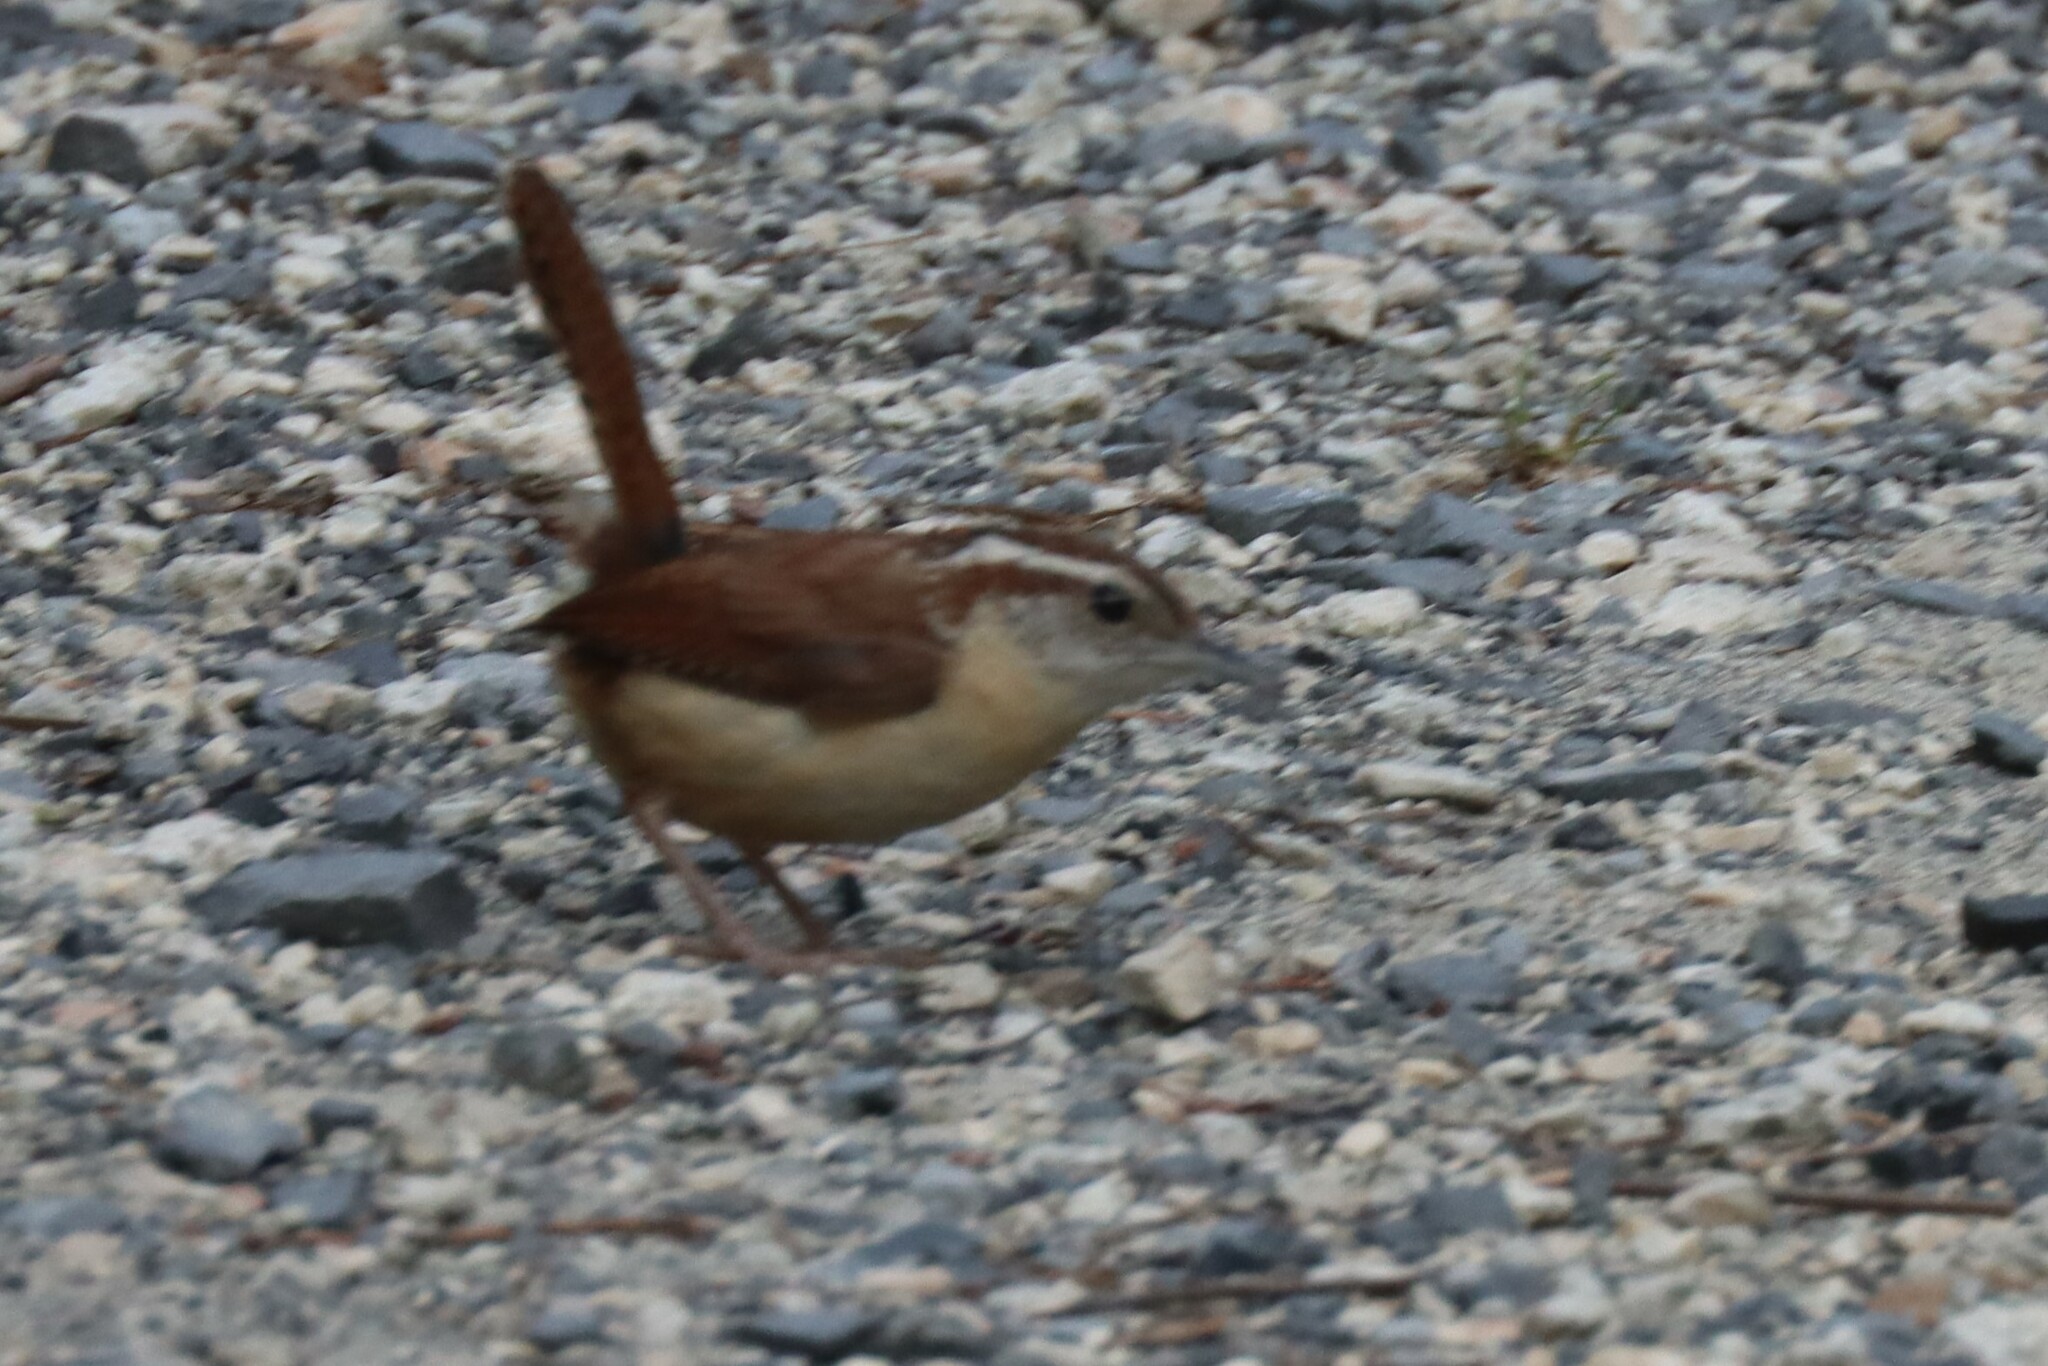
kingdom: Animalia
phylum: Chordata
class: Aves
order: Passeriformes
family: Troglodytidae
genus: Thryothorus
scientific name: Thryothorus ludovicianus
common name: Carolina wren
